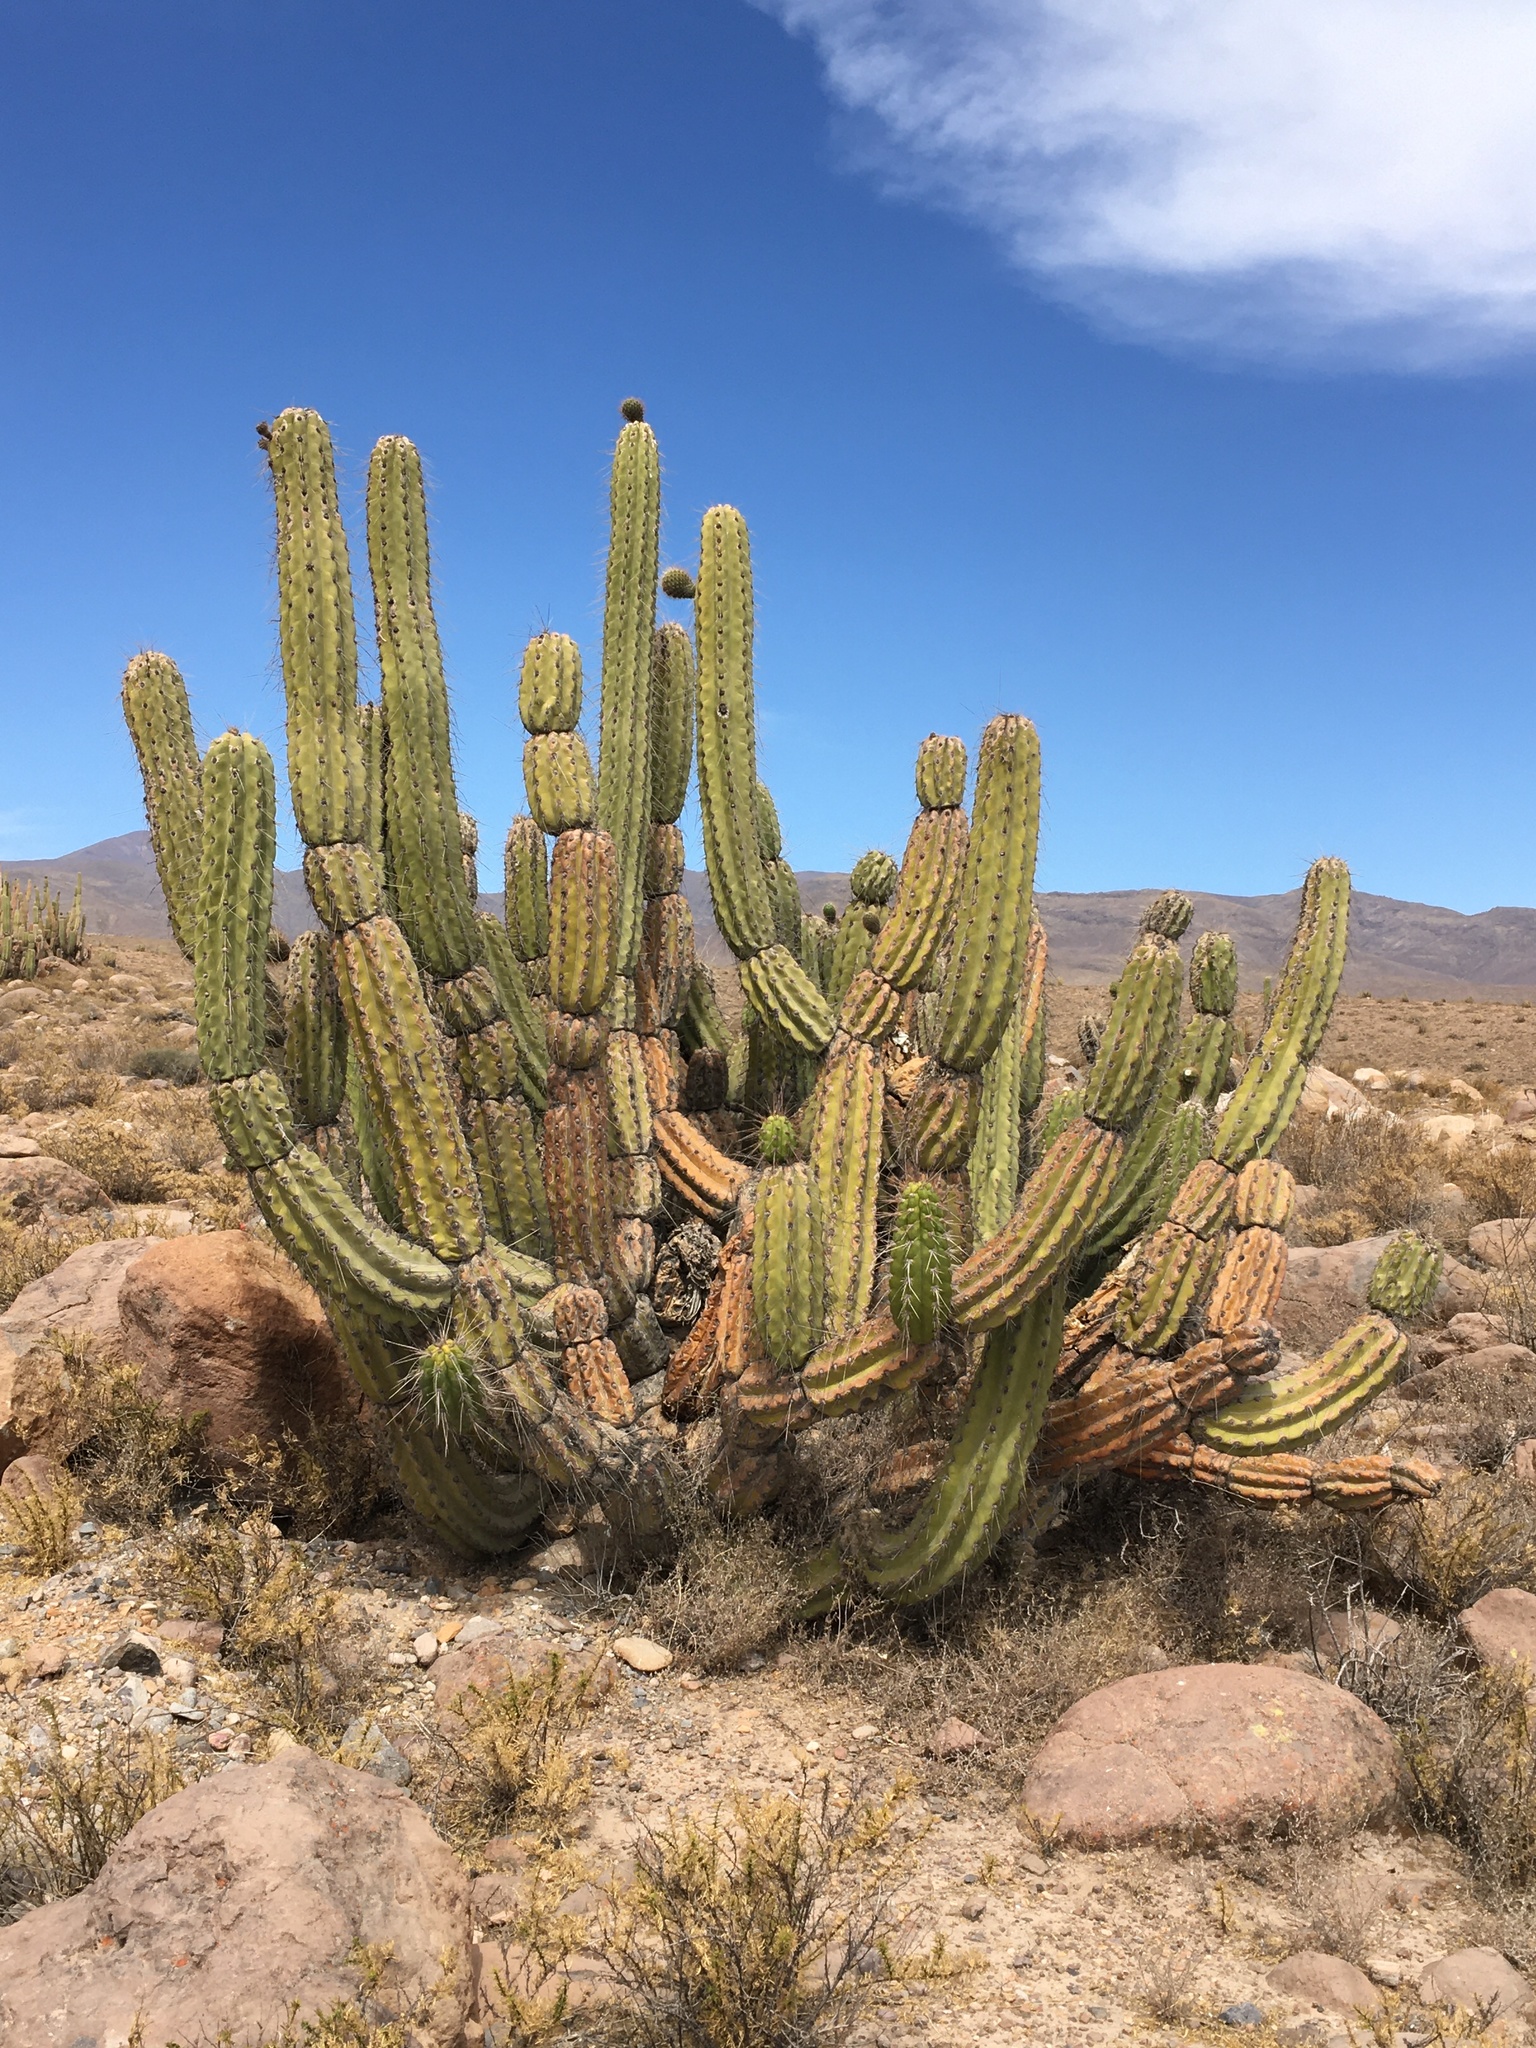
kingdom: Plantae
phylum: Tracheophyta
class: Magnoliopsida
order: Caryophyllales
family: Cactaceae
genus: Corryocactus
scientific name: Corryocactus brevistylus
